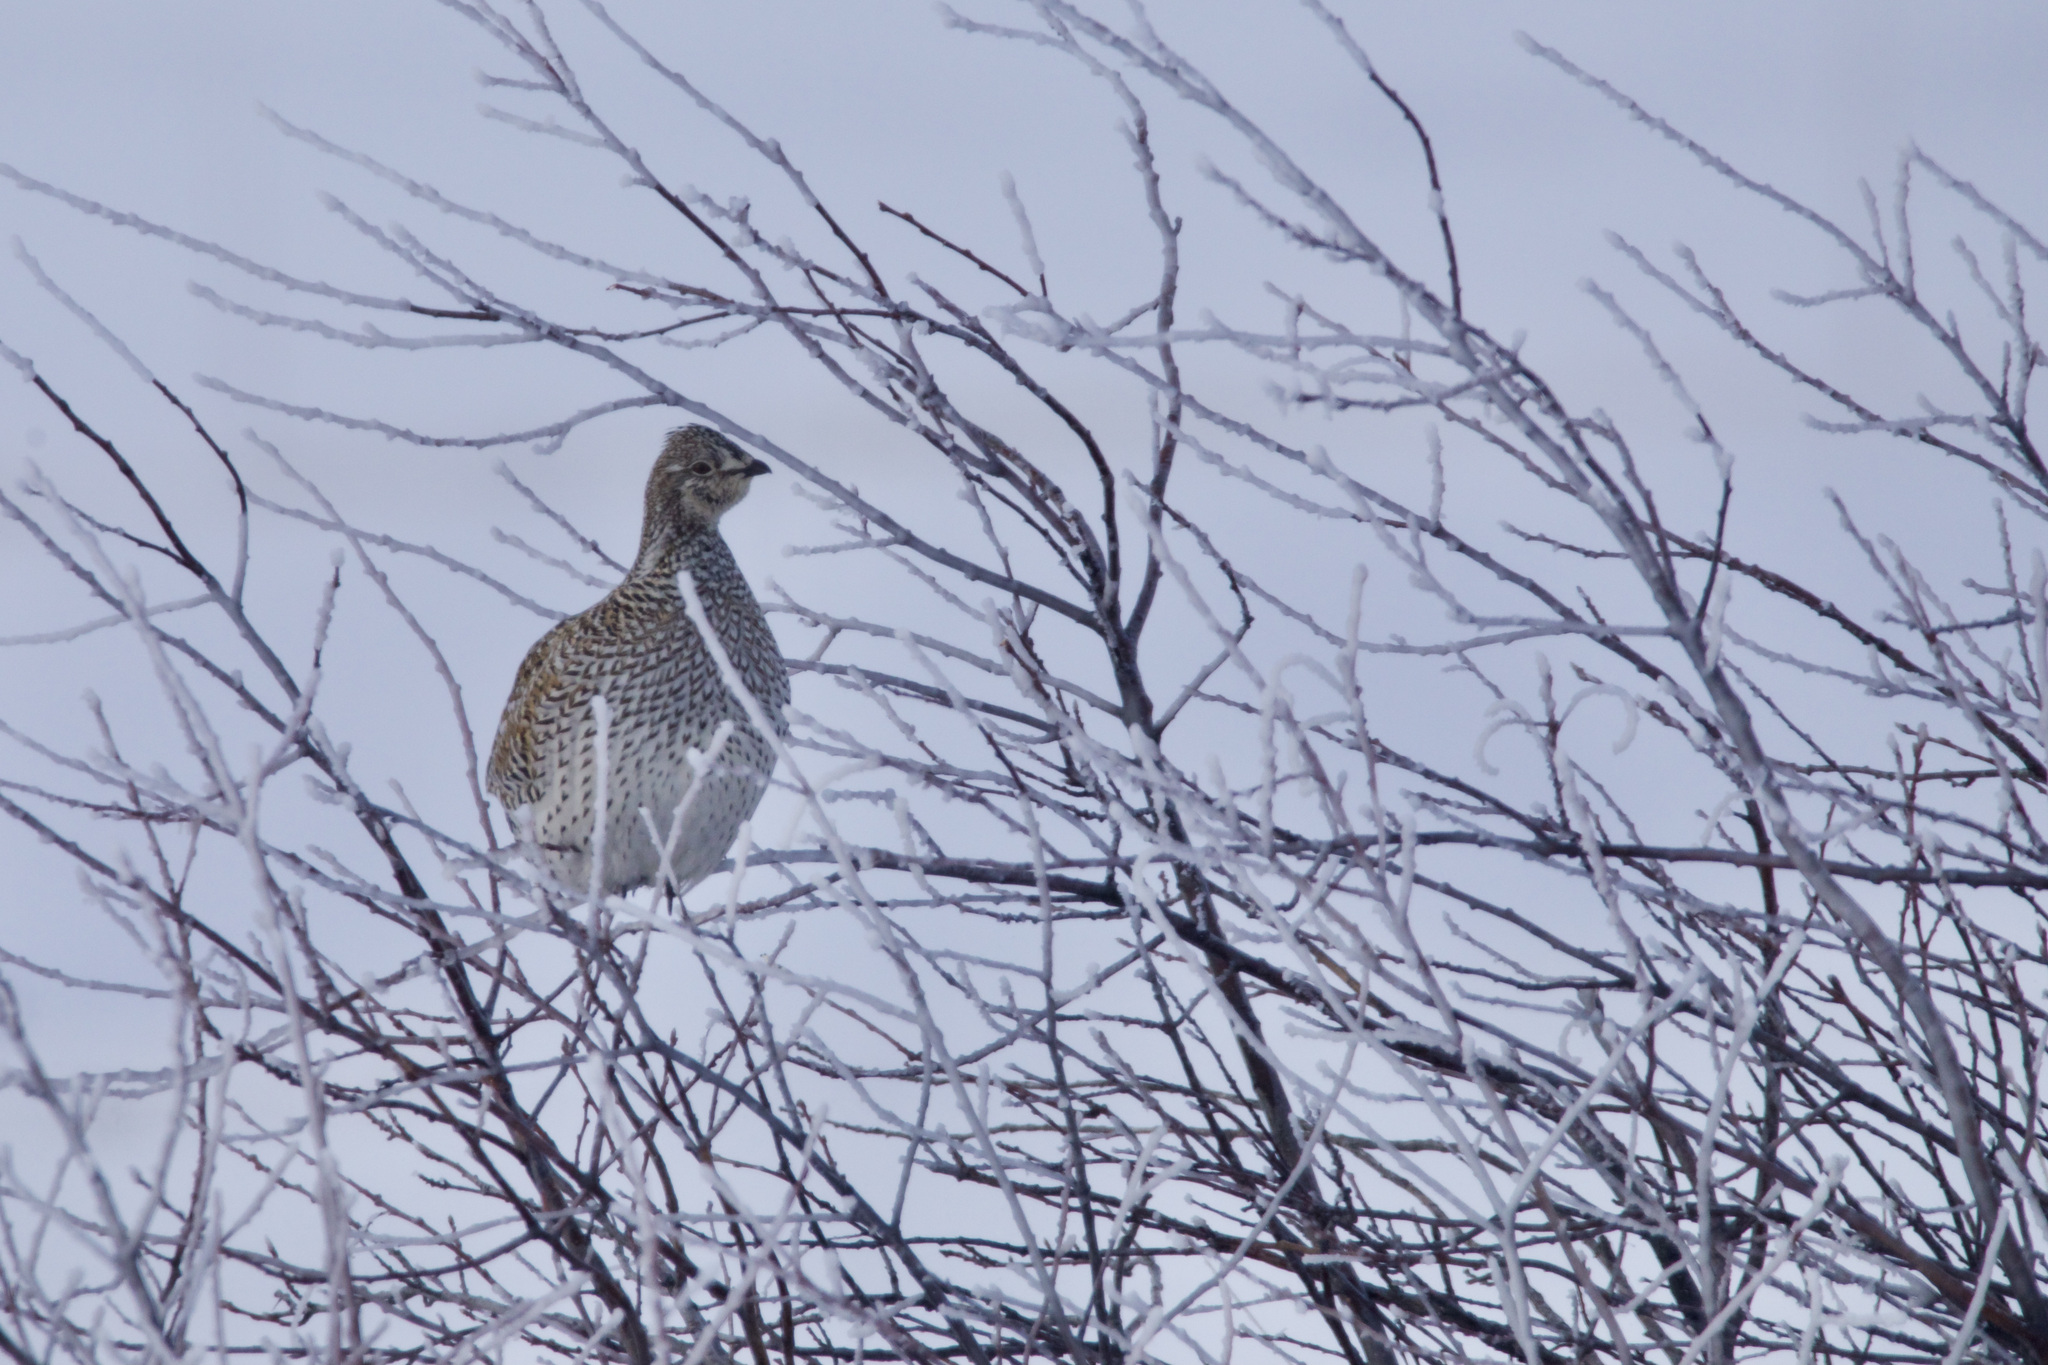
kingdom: Animalia
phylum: Chordata
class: Aves
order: Galliformes
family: Phasianidae
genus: Tympanuchus
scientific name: Tympanuchus phasianellus
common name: Sharp-tailed grouse
